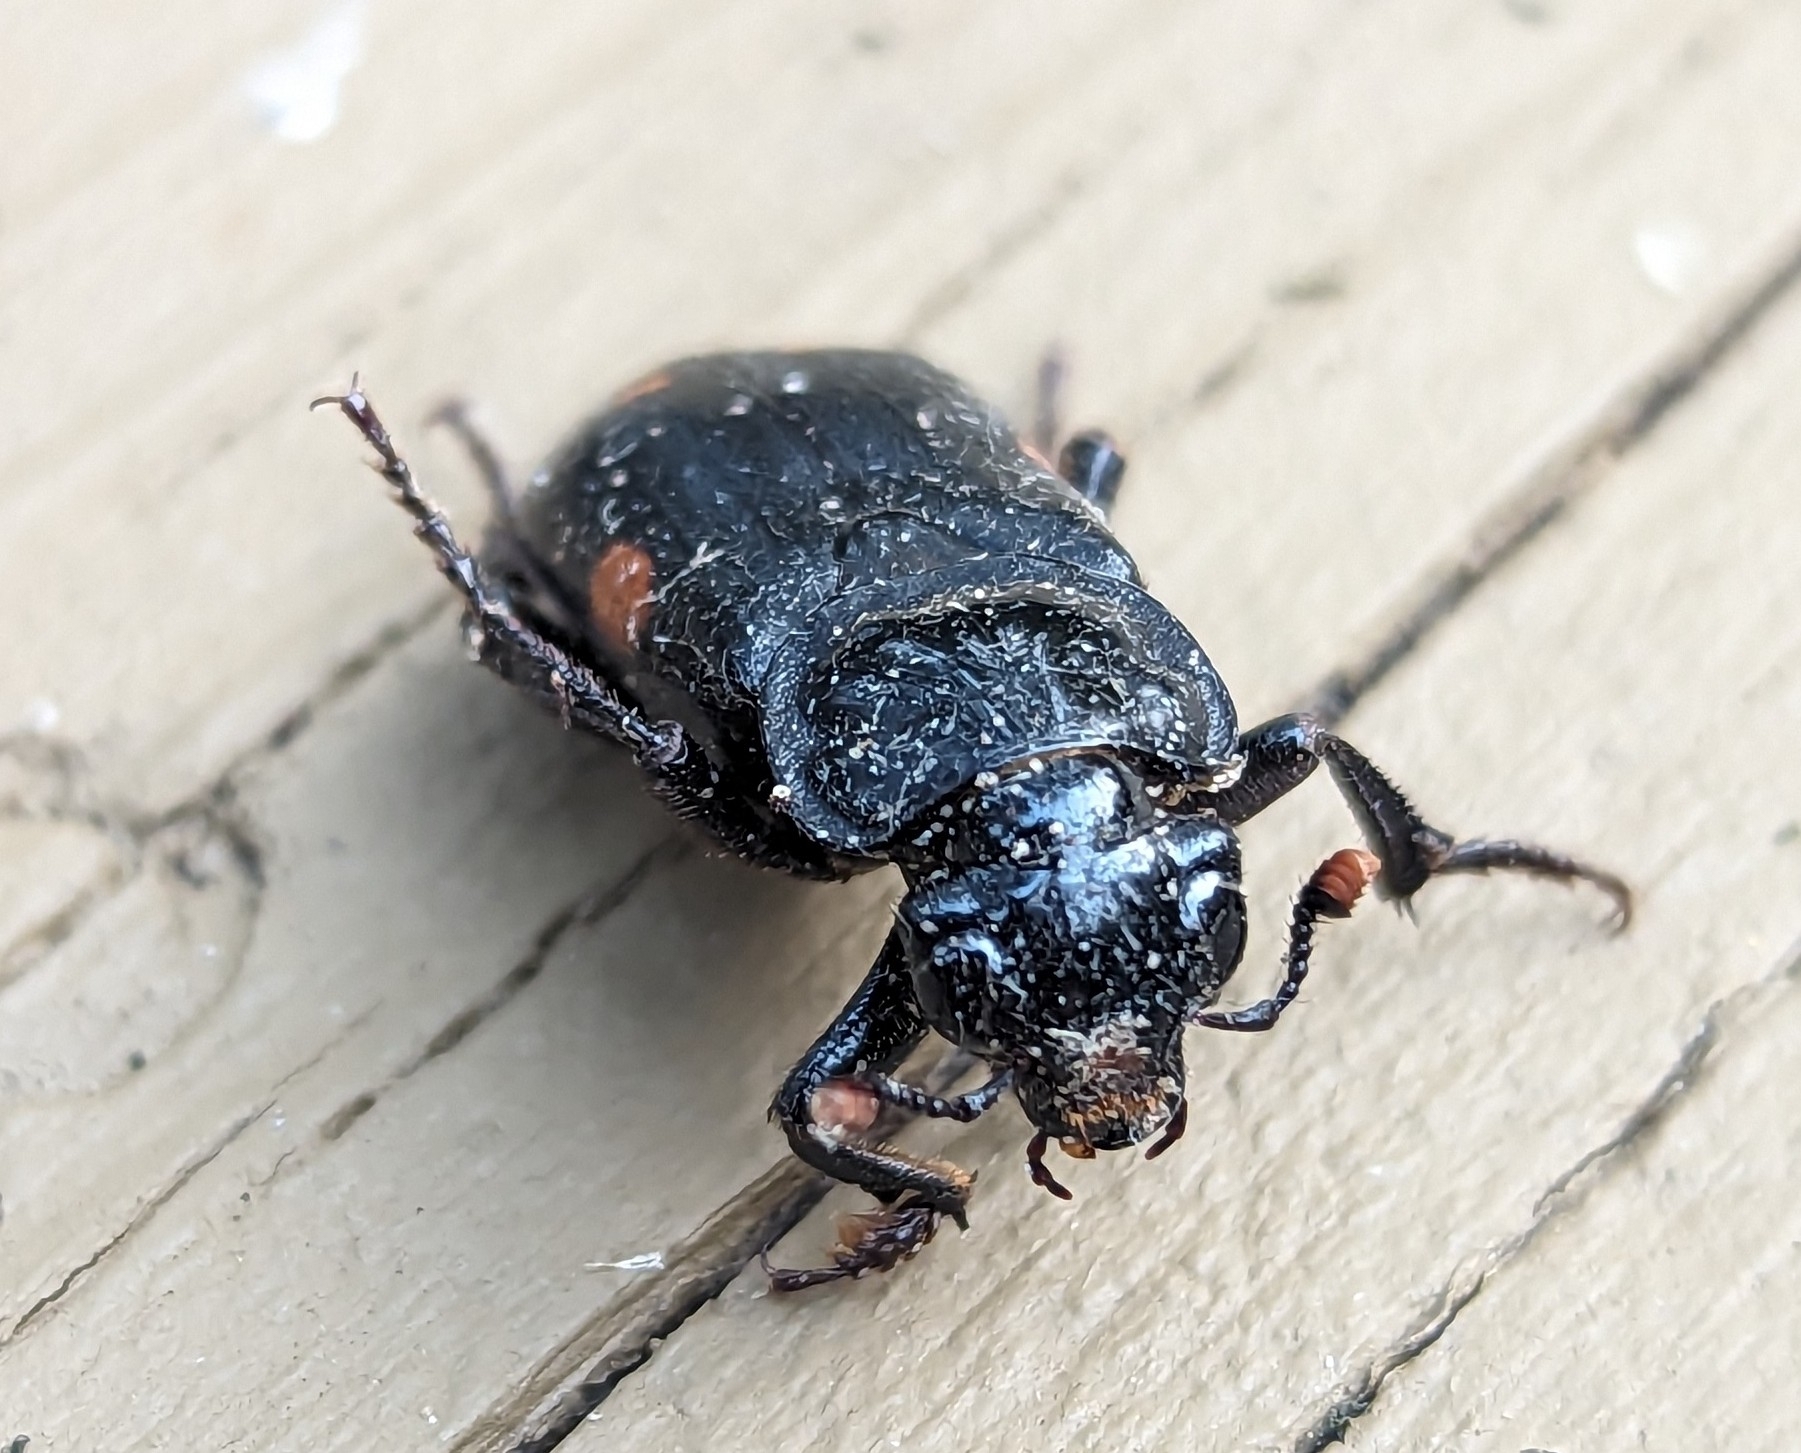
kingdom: Animalia
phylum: Arthropoda
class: Insecta
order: Coleoptera
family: Staphylinidae
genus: Nicrophorus
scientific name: Nicrophorus pustulatus
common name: Pustulated carrion beetle
